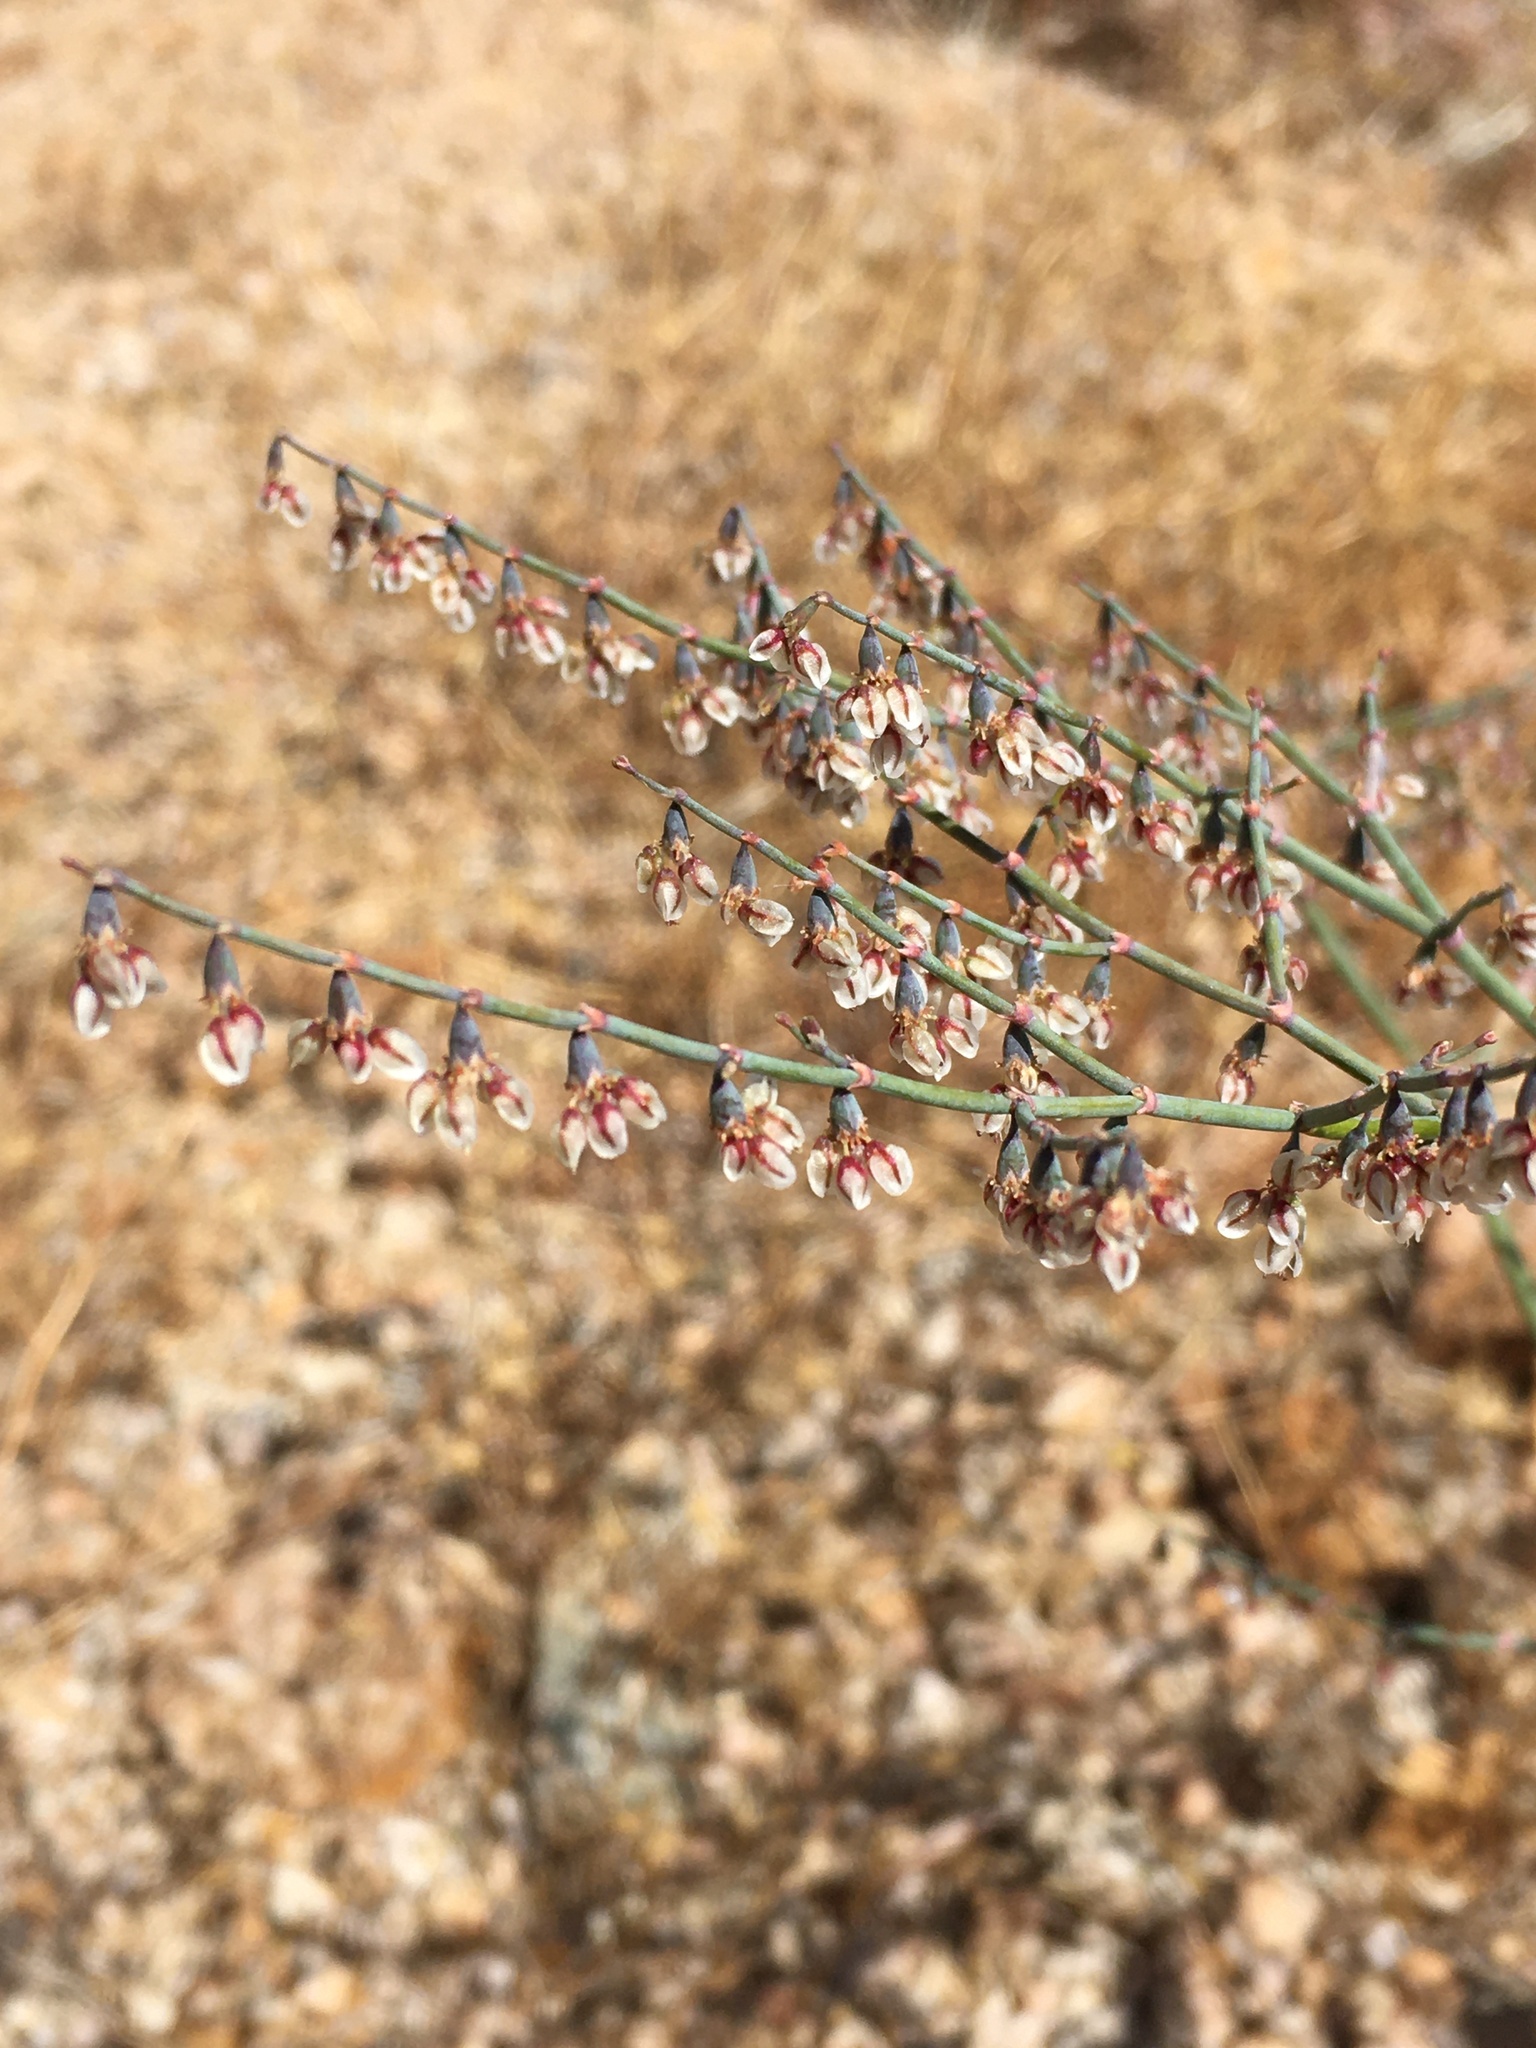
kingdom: Plantae
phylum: Tracheophyta
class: Magnoliopsida
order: Caryophyllales
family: Polygonaceae
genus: Eriogonum
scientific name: Eriogonum deflexum
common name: Skeleton-weed
